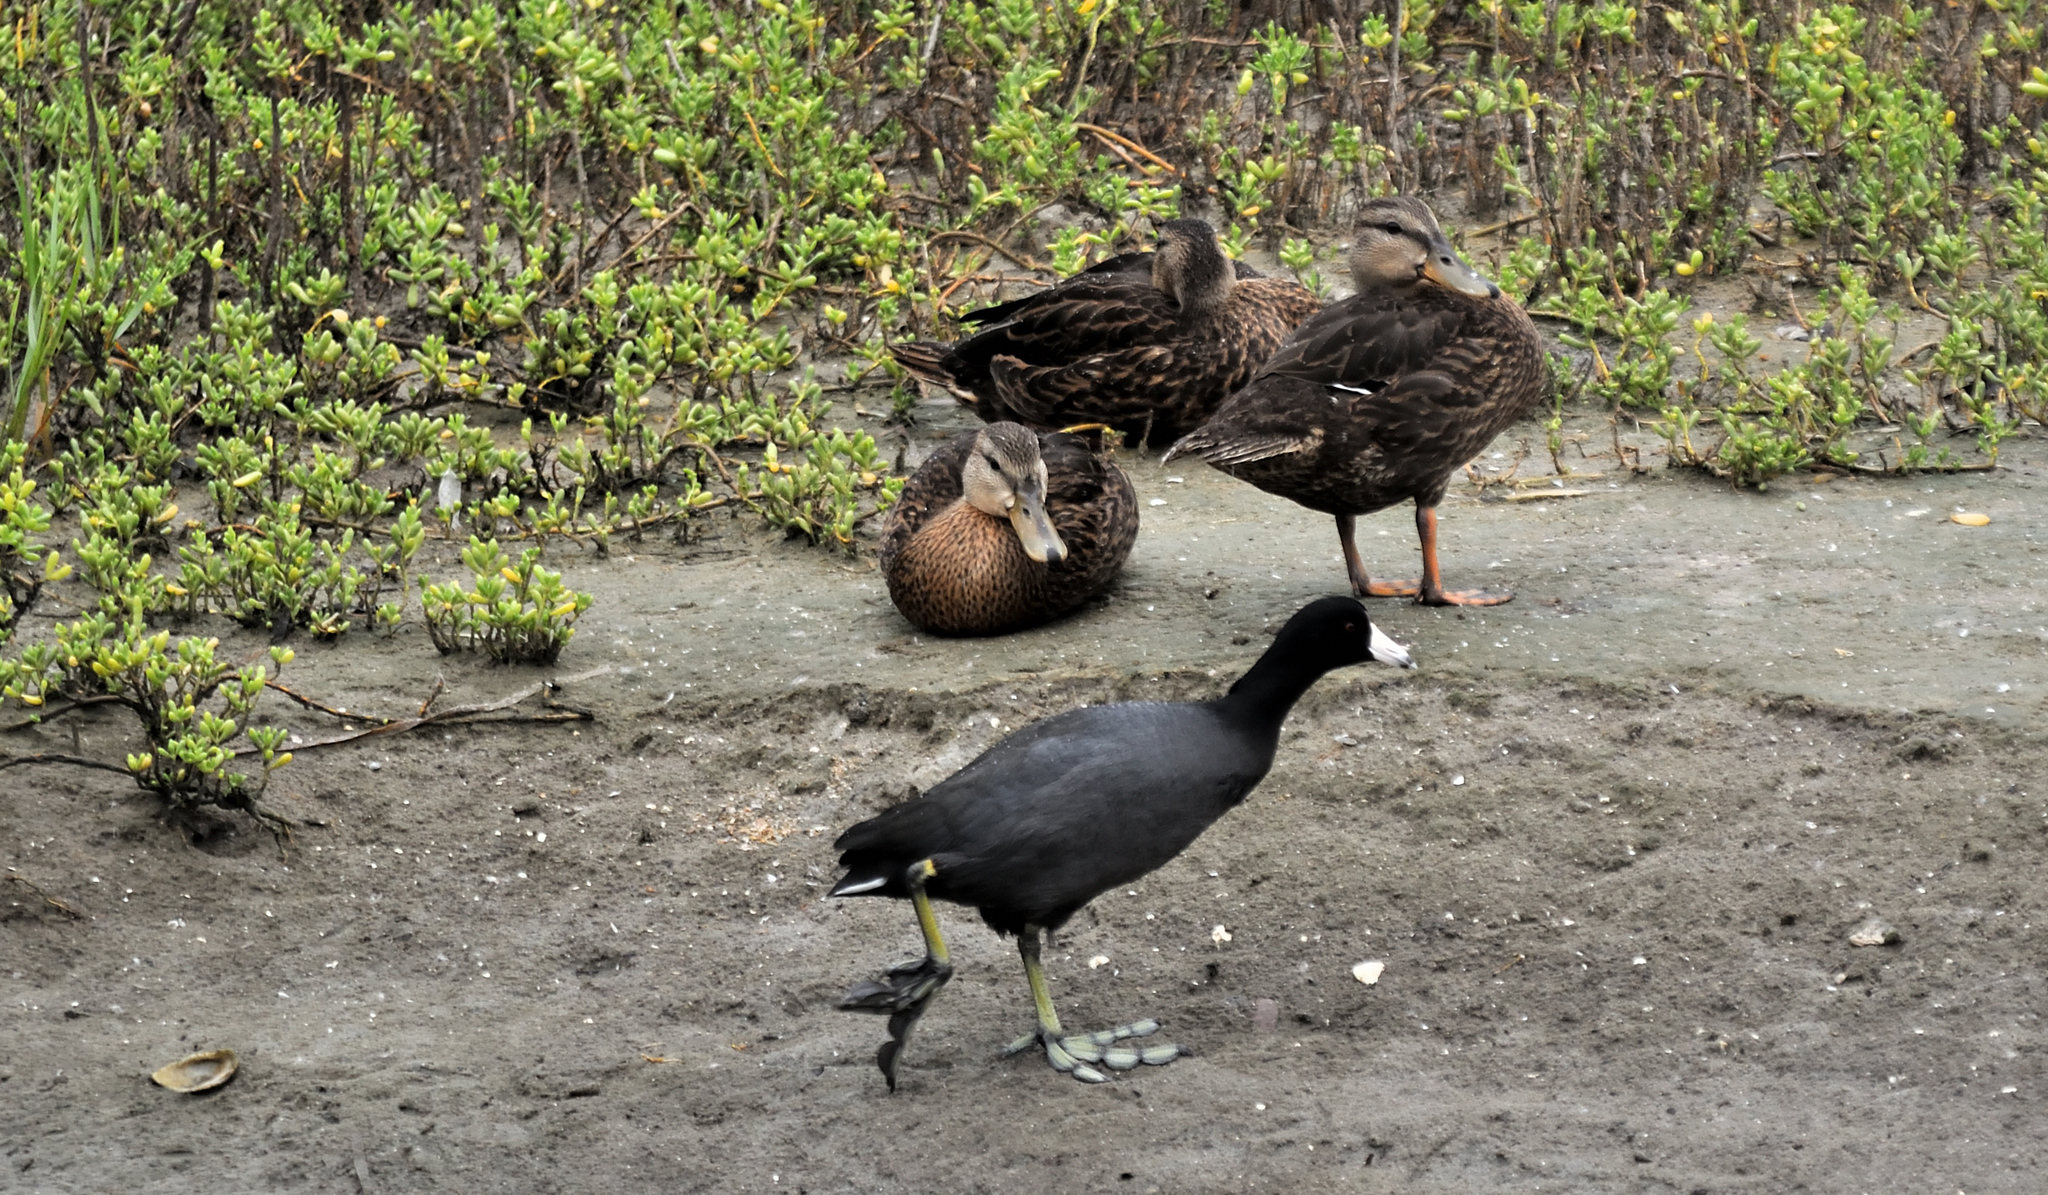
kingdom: Animalia
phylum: Chordata
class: Aves
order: Gruiformes
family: Rallidae
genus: Fulica
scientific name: Fulica americana
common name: American coot
